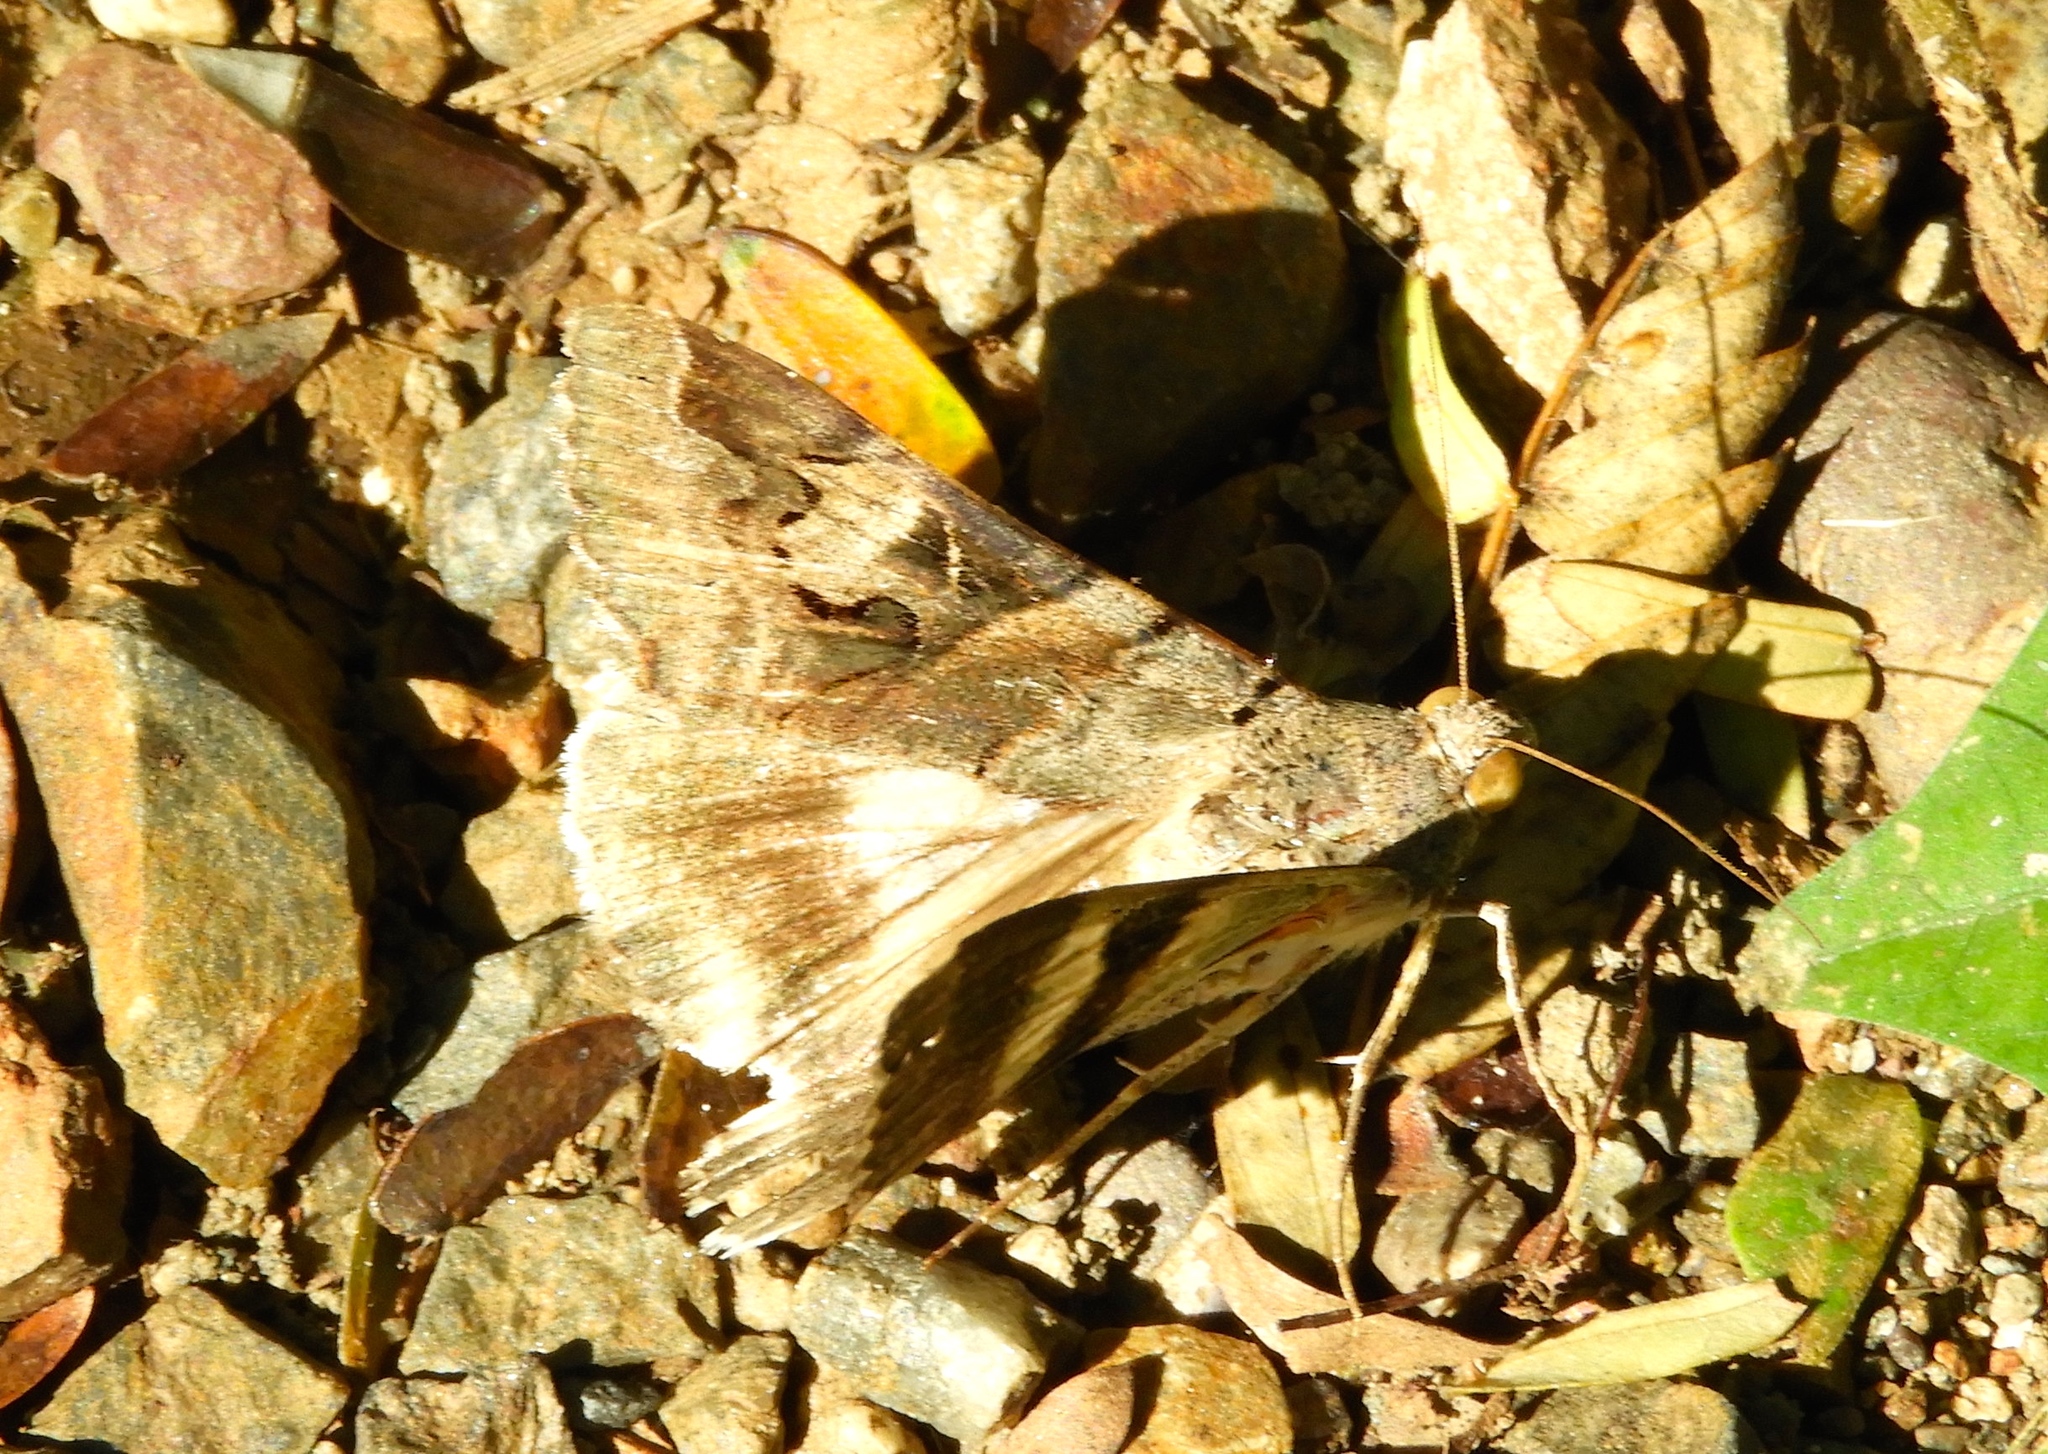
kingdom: Animalia
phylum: Arthropoda
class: Insecta
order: Lepidoptera
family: Erebidae
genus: Melipotis
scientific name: Melipotis indomita
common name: Moth
